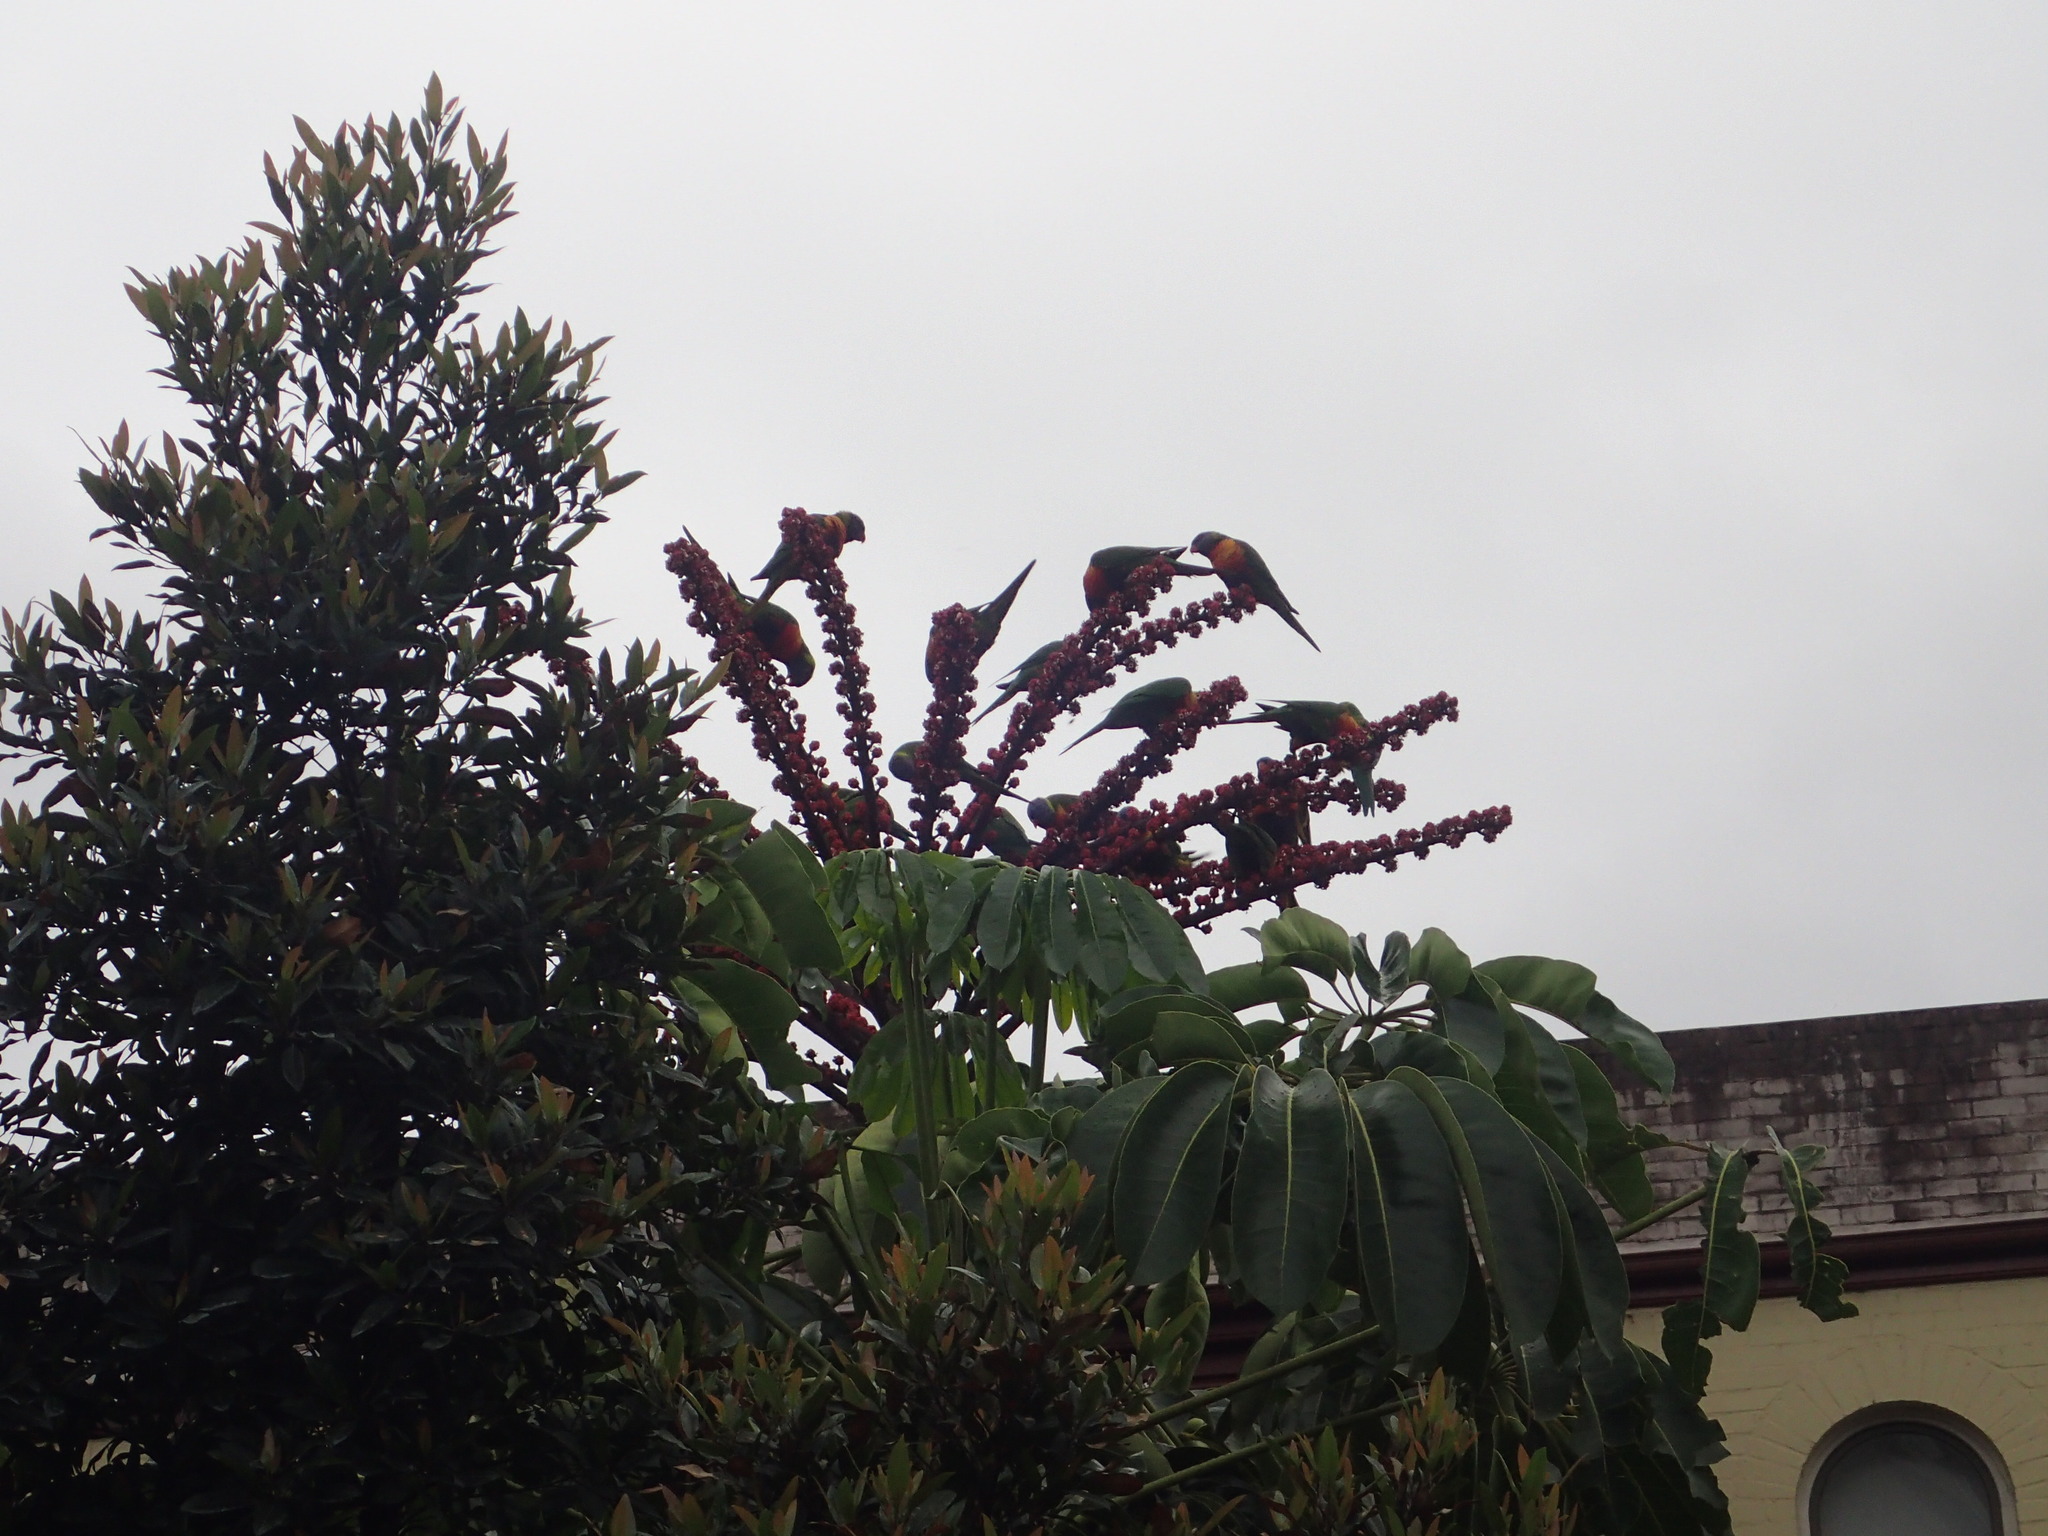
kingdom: Animalia
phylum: Chordata
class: Aves
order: Psittaciformes
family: Psittacidae
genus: Trichoglossus
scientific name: Trichoglossus haematodus
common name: Coconut lorikeet
